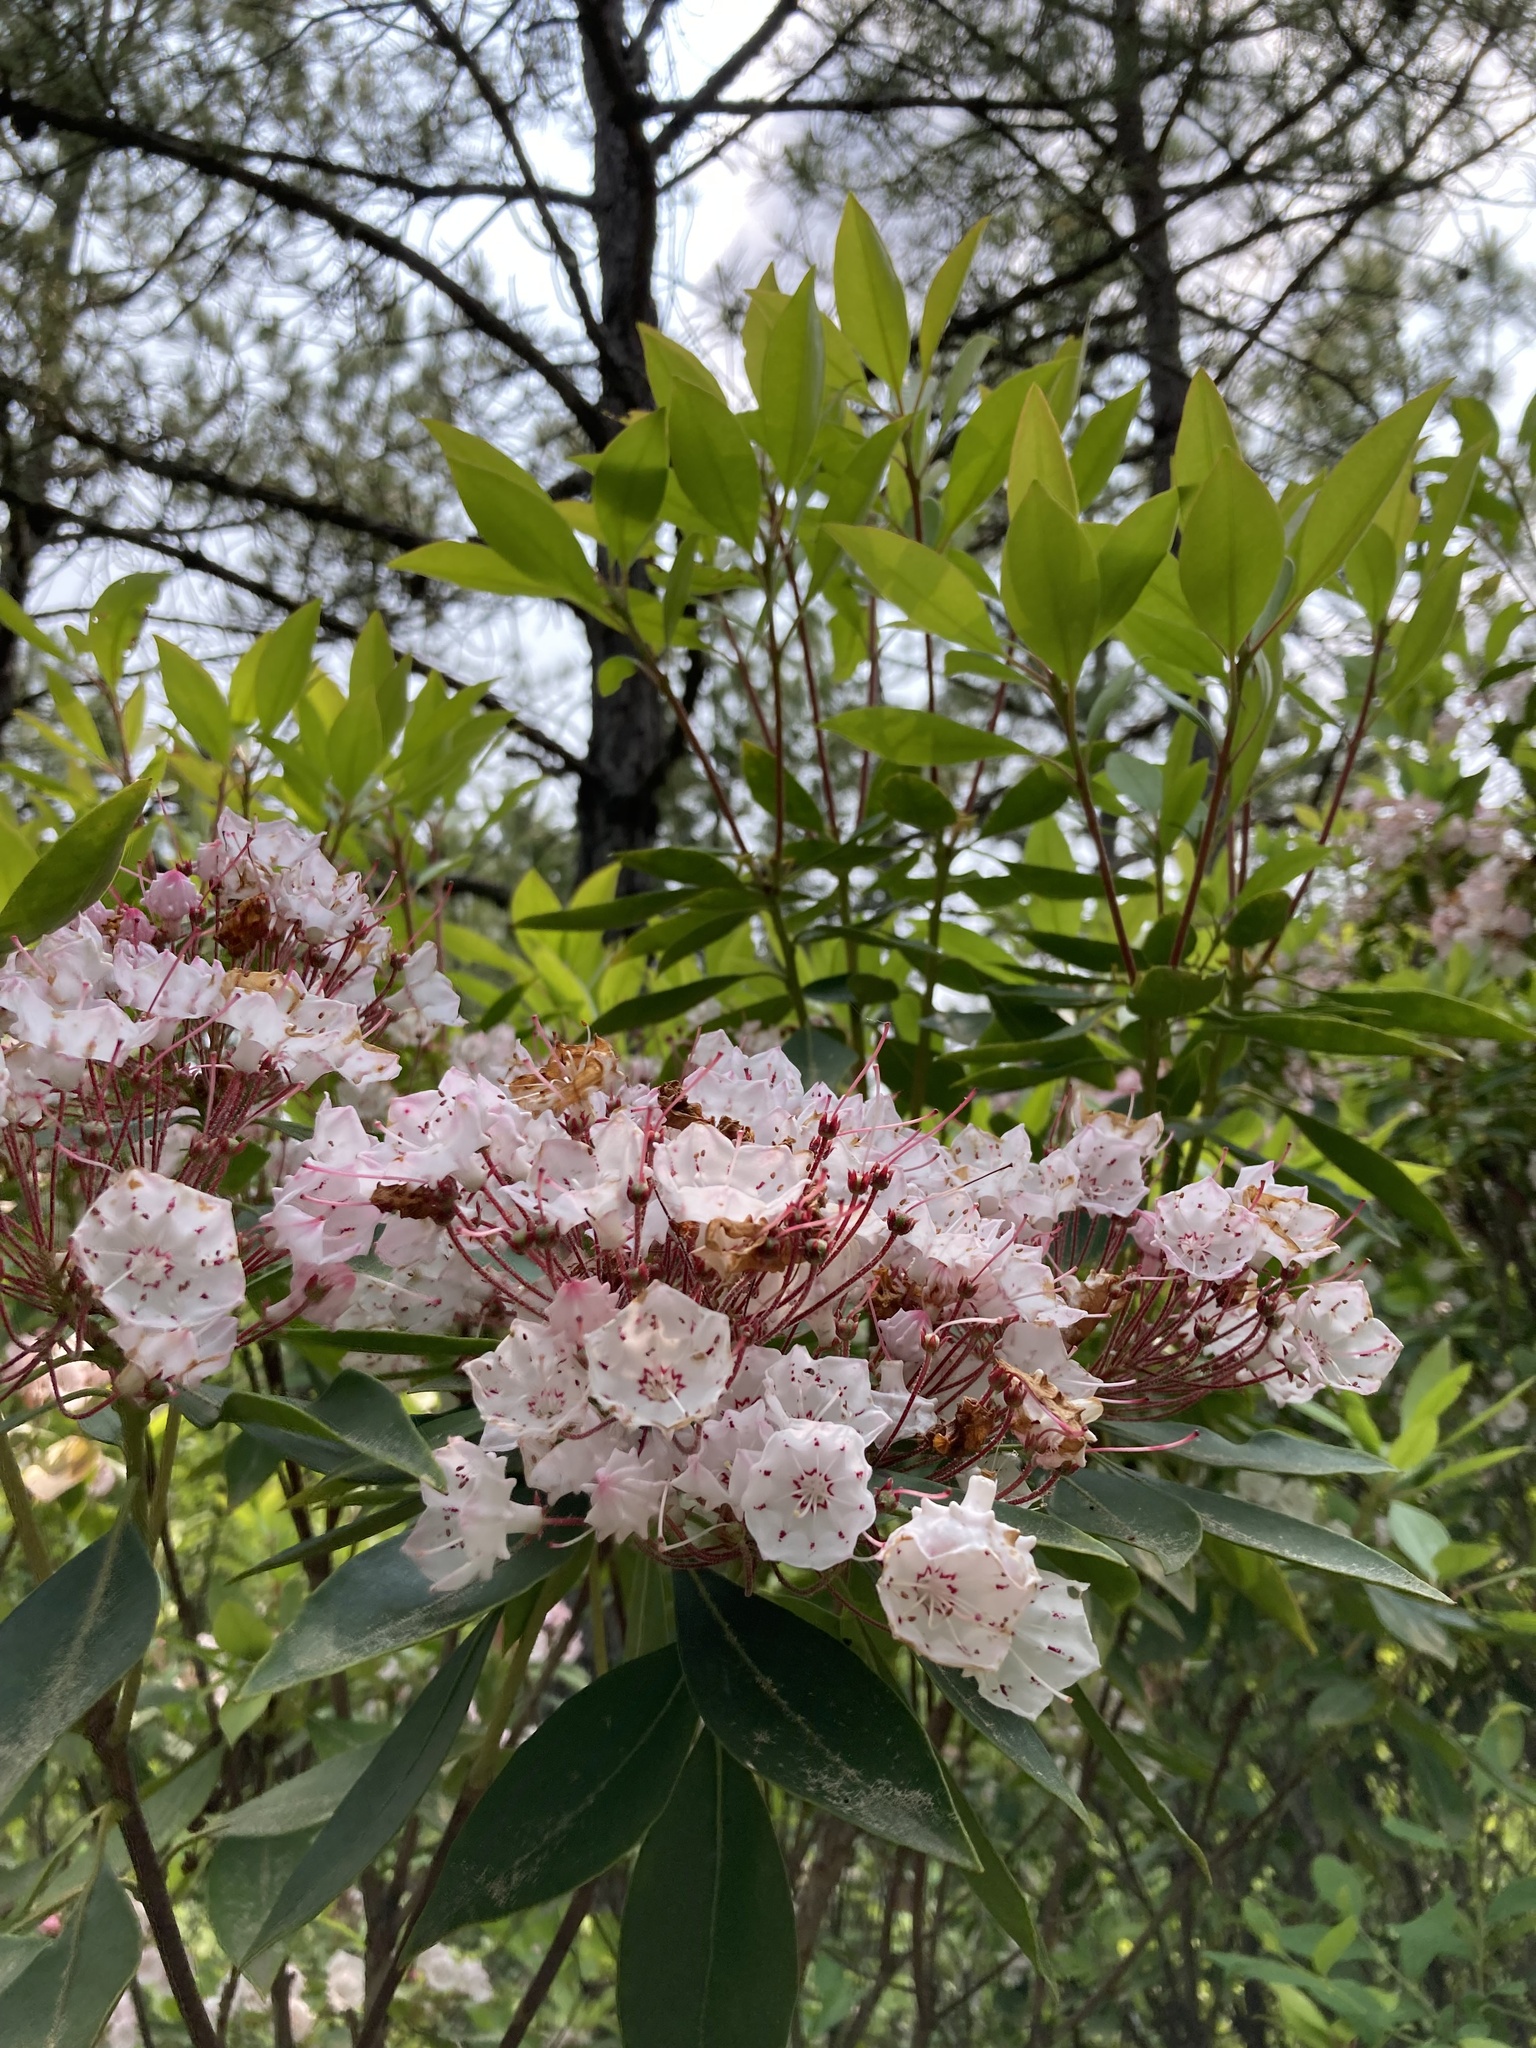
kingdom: Plantae
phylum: Tracheophyta
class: Magnoliopsida
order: Ericales
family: Ericaceae
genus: Kalmia
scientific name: Kalmia latifolia
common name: Mountain-laurel
